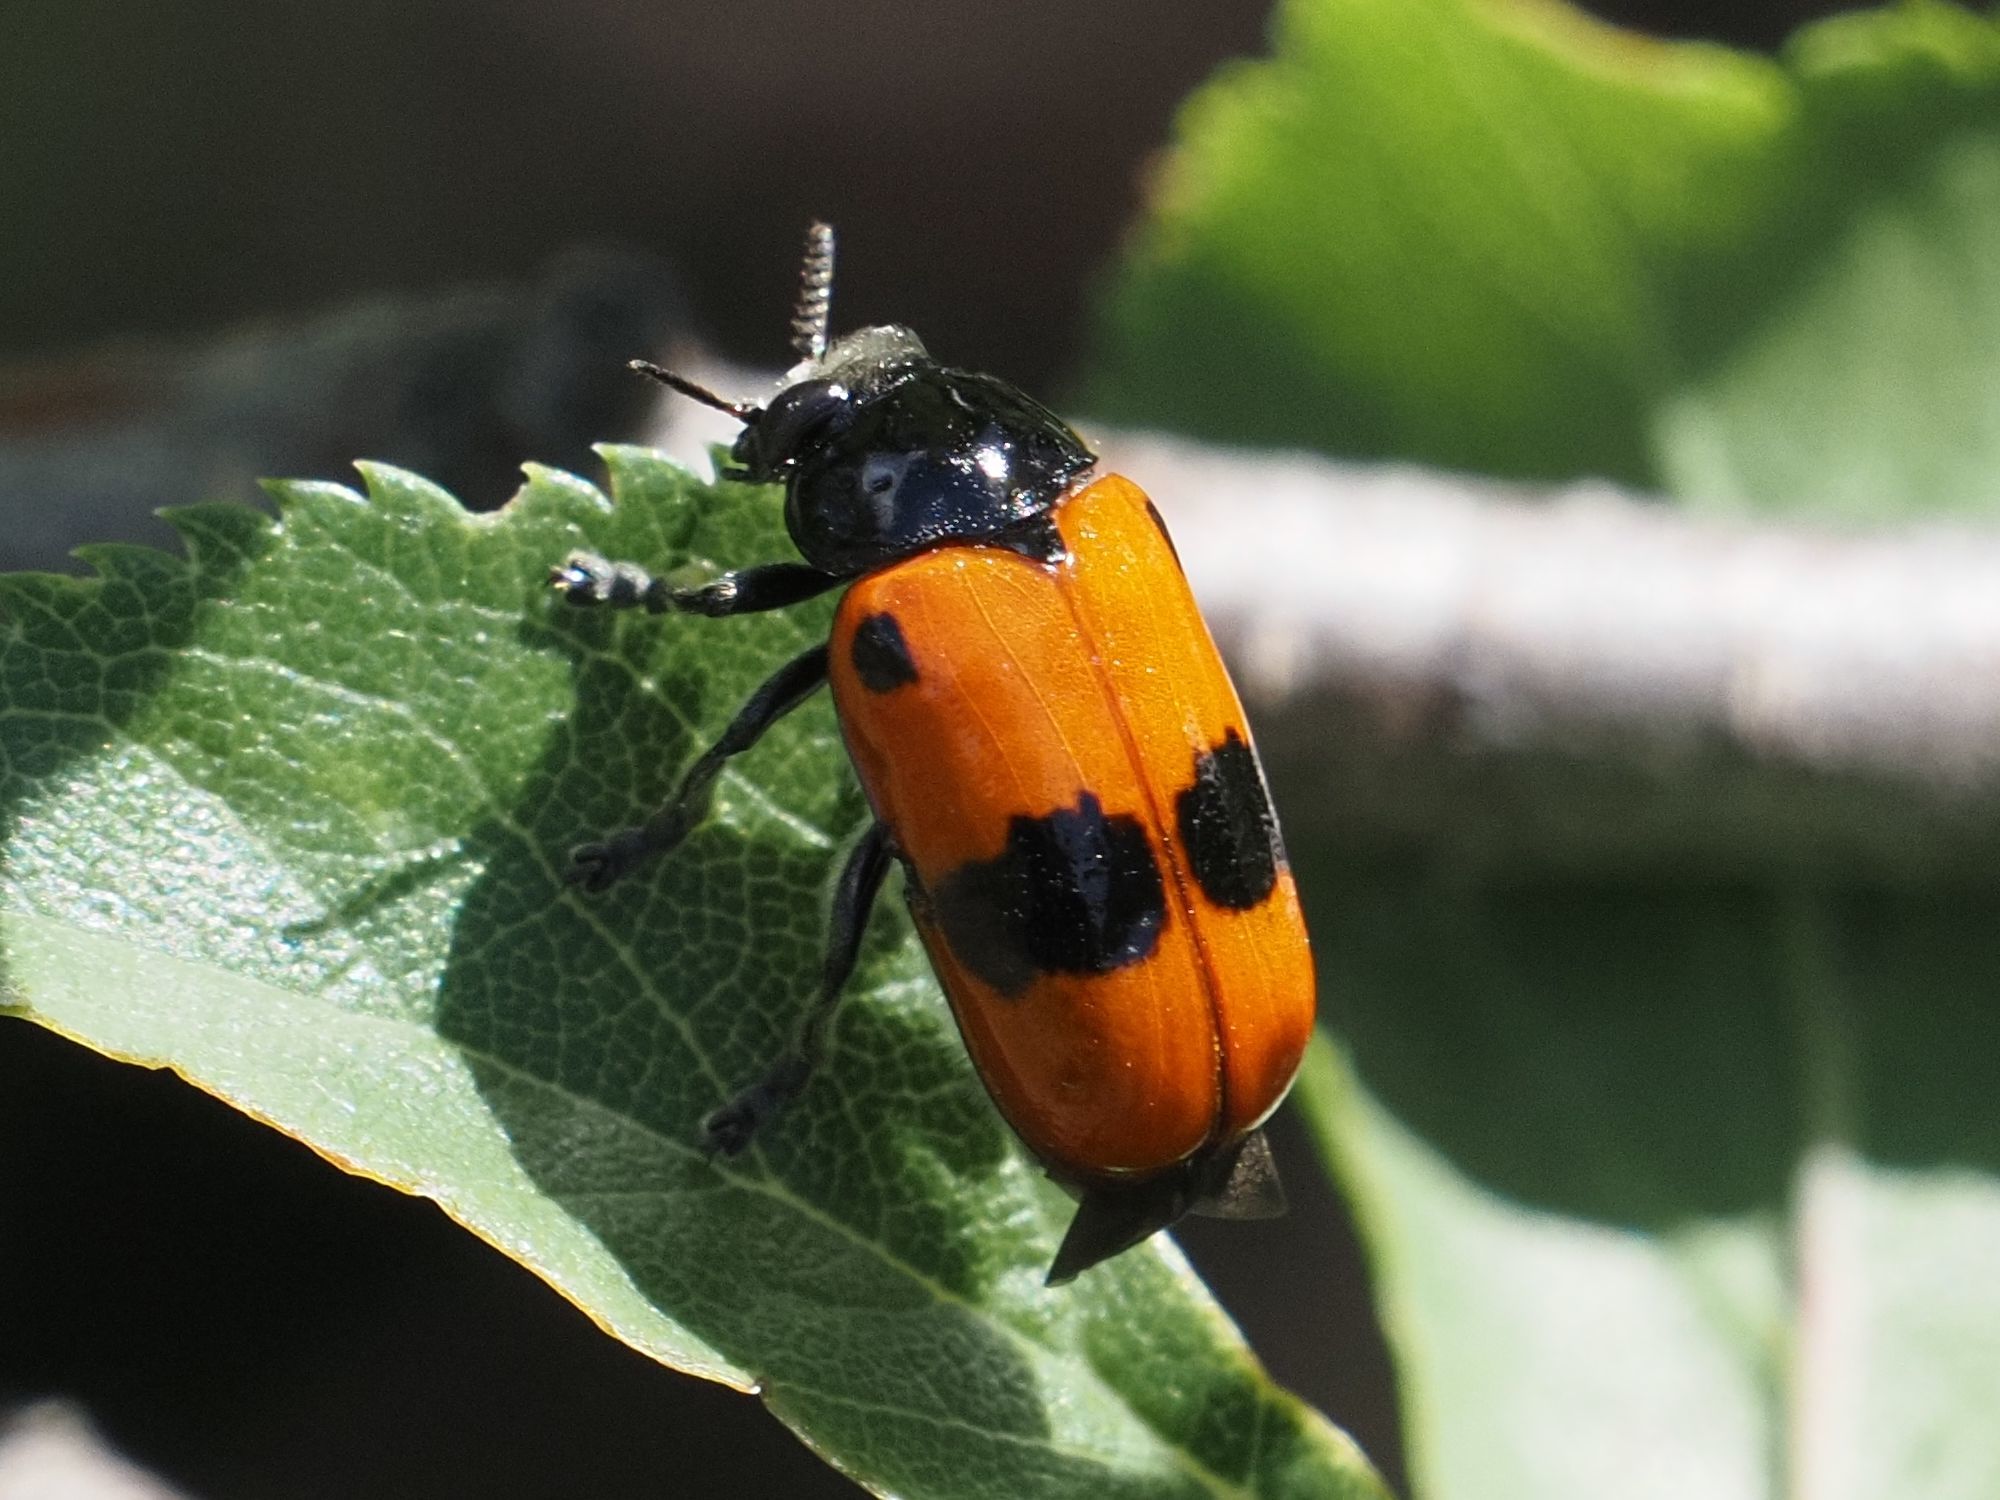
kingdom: Animalia
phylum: Arthropoda
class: Insecta
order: Coleoptera
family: Chrysomelidae
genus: Clytra
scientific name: Clytra laeviuscula
